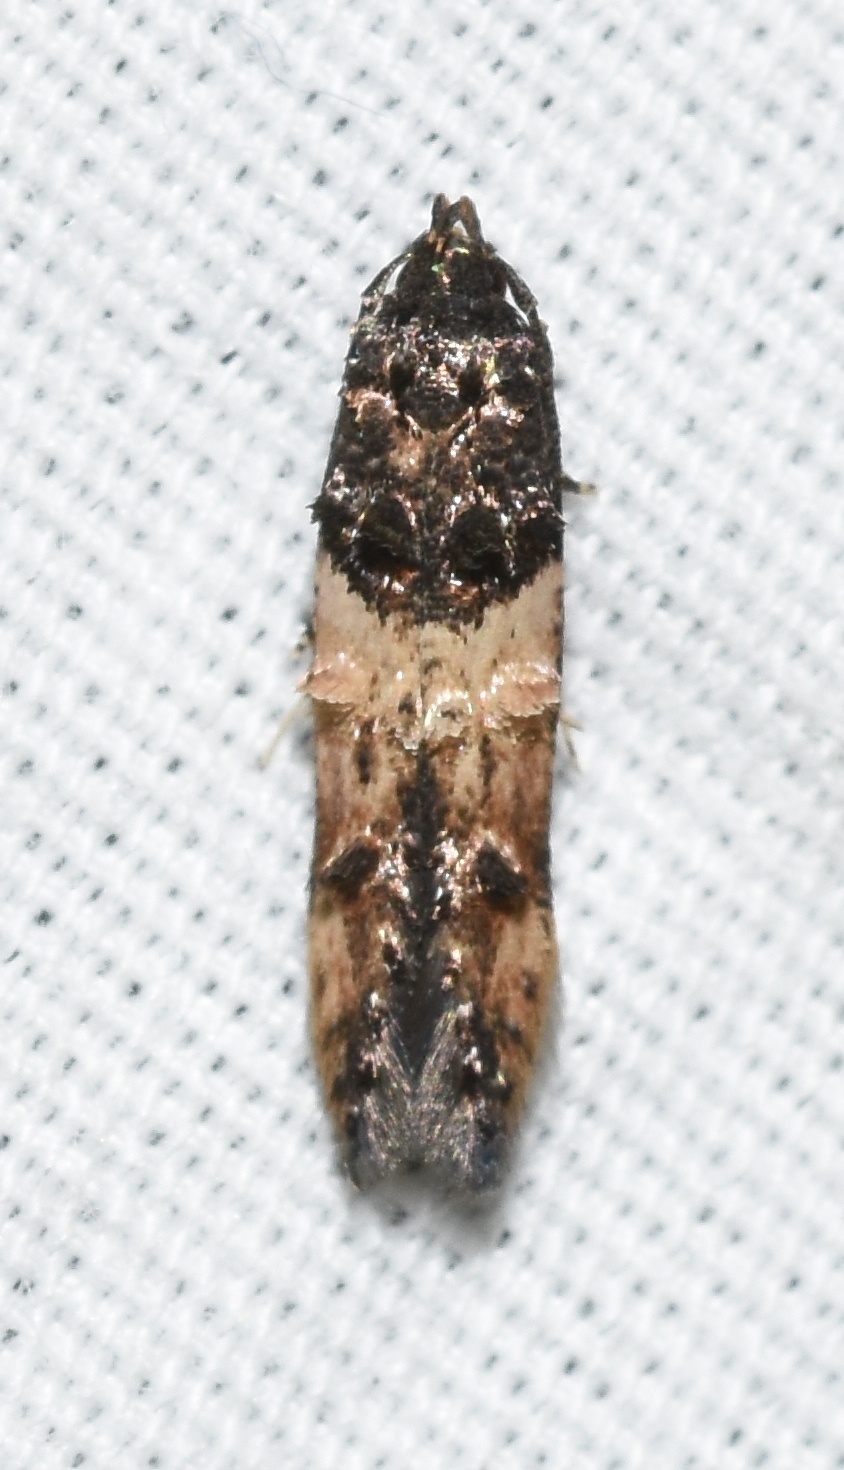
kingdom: Animalia
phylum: Arthropoda
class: Insecta
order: Lepidoptera
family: Cosmopterigidae
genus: Walshia
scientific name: Walshia miscecolorella
